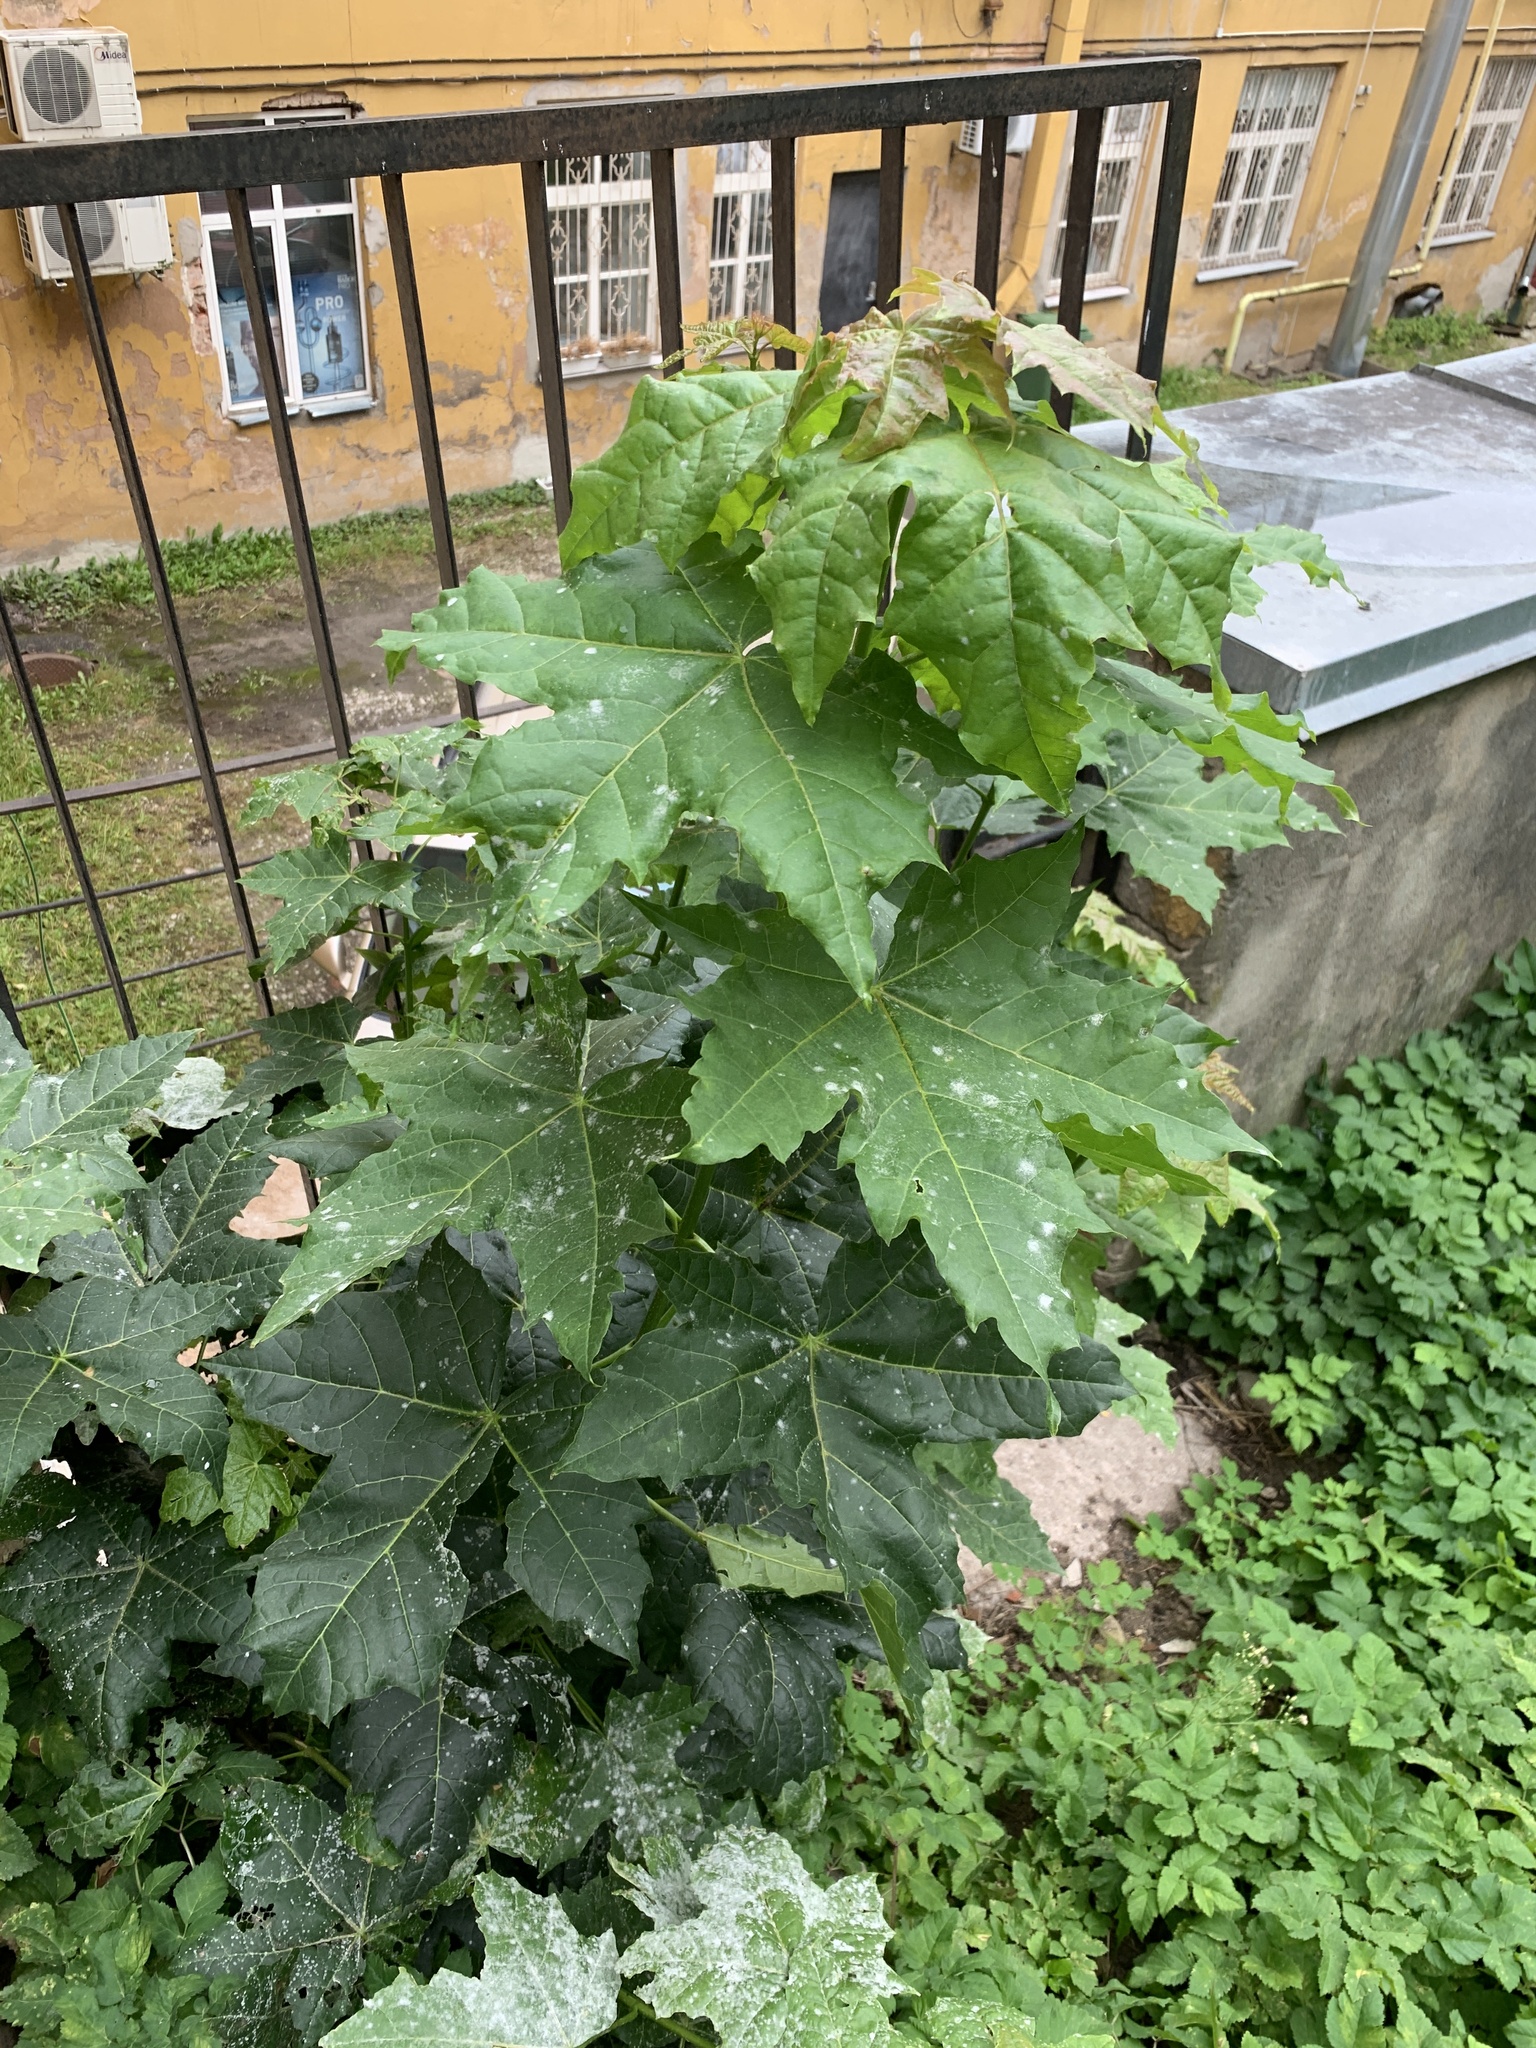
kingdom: Plantae
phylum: Tracheophyta
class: Magnoliopsida
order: Sapindales
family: Sapindaceae
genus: Acer
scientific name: Acer platanoides
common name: Norway maple
